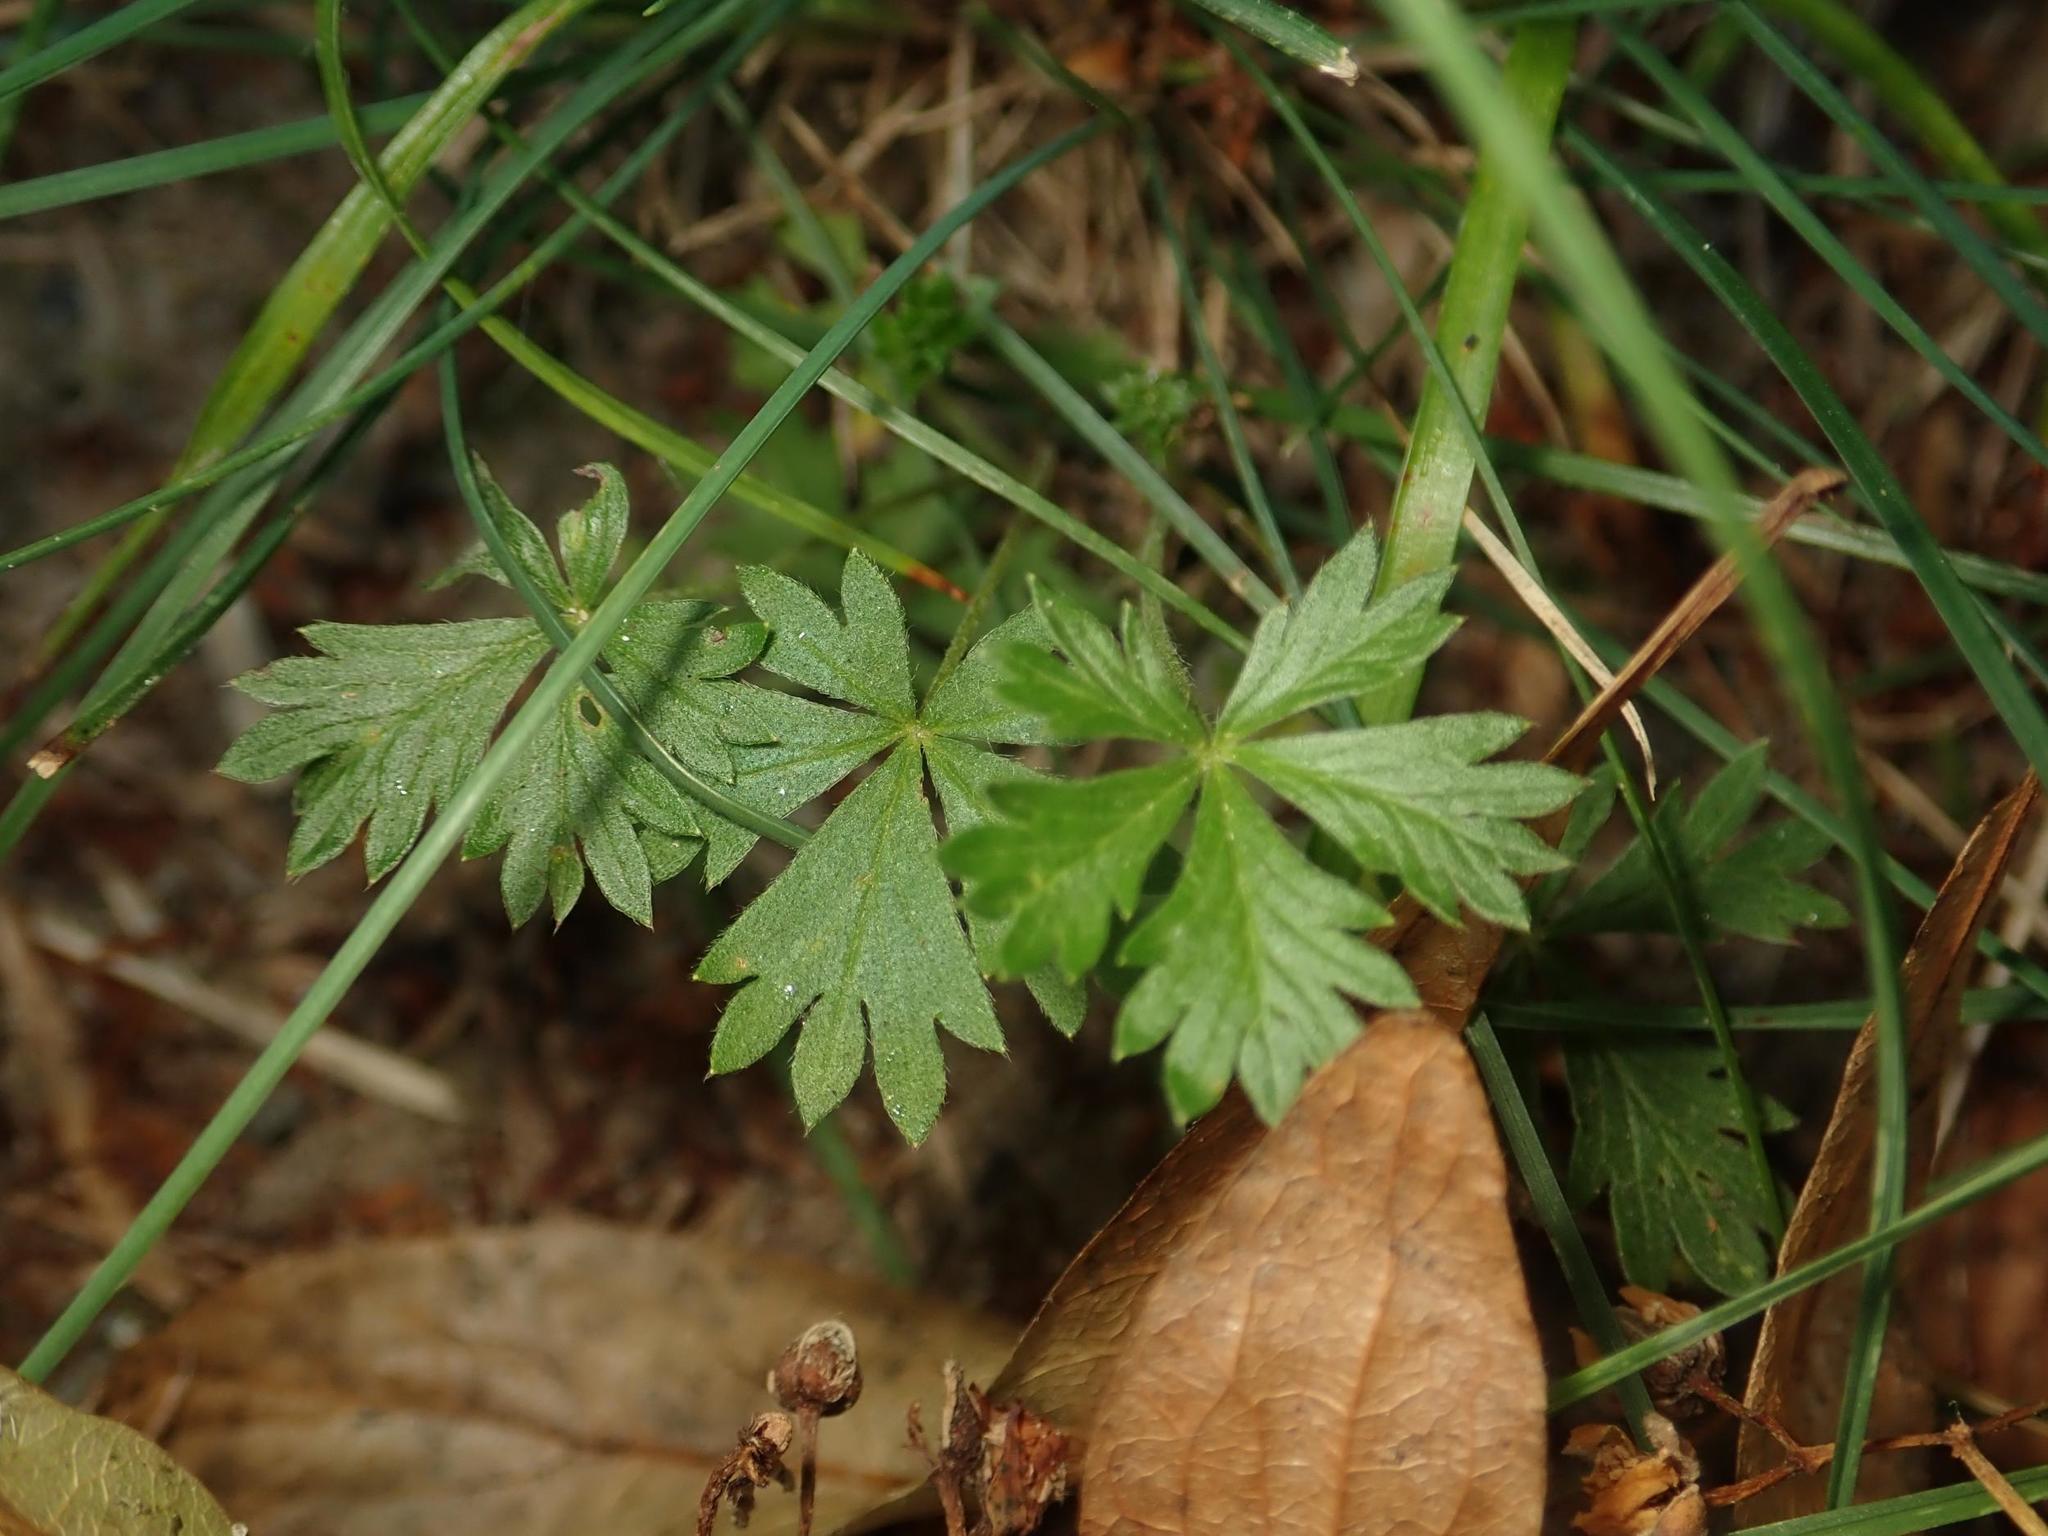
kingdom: Plantae
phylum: Tracheophyta
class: Magnoliopsida
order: Rosales
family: Rosaceae
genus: Potentilla
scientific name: Potentilla argentea
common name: Hoary cinquefoil
